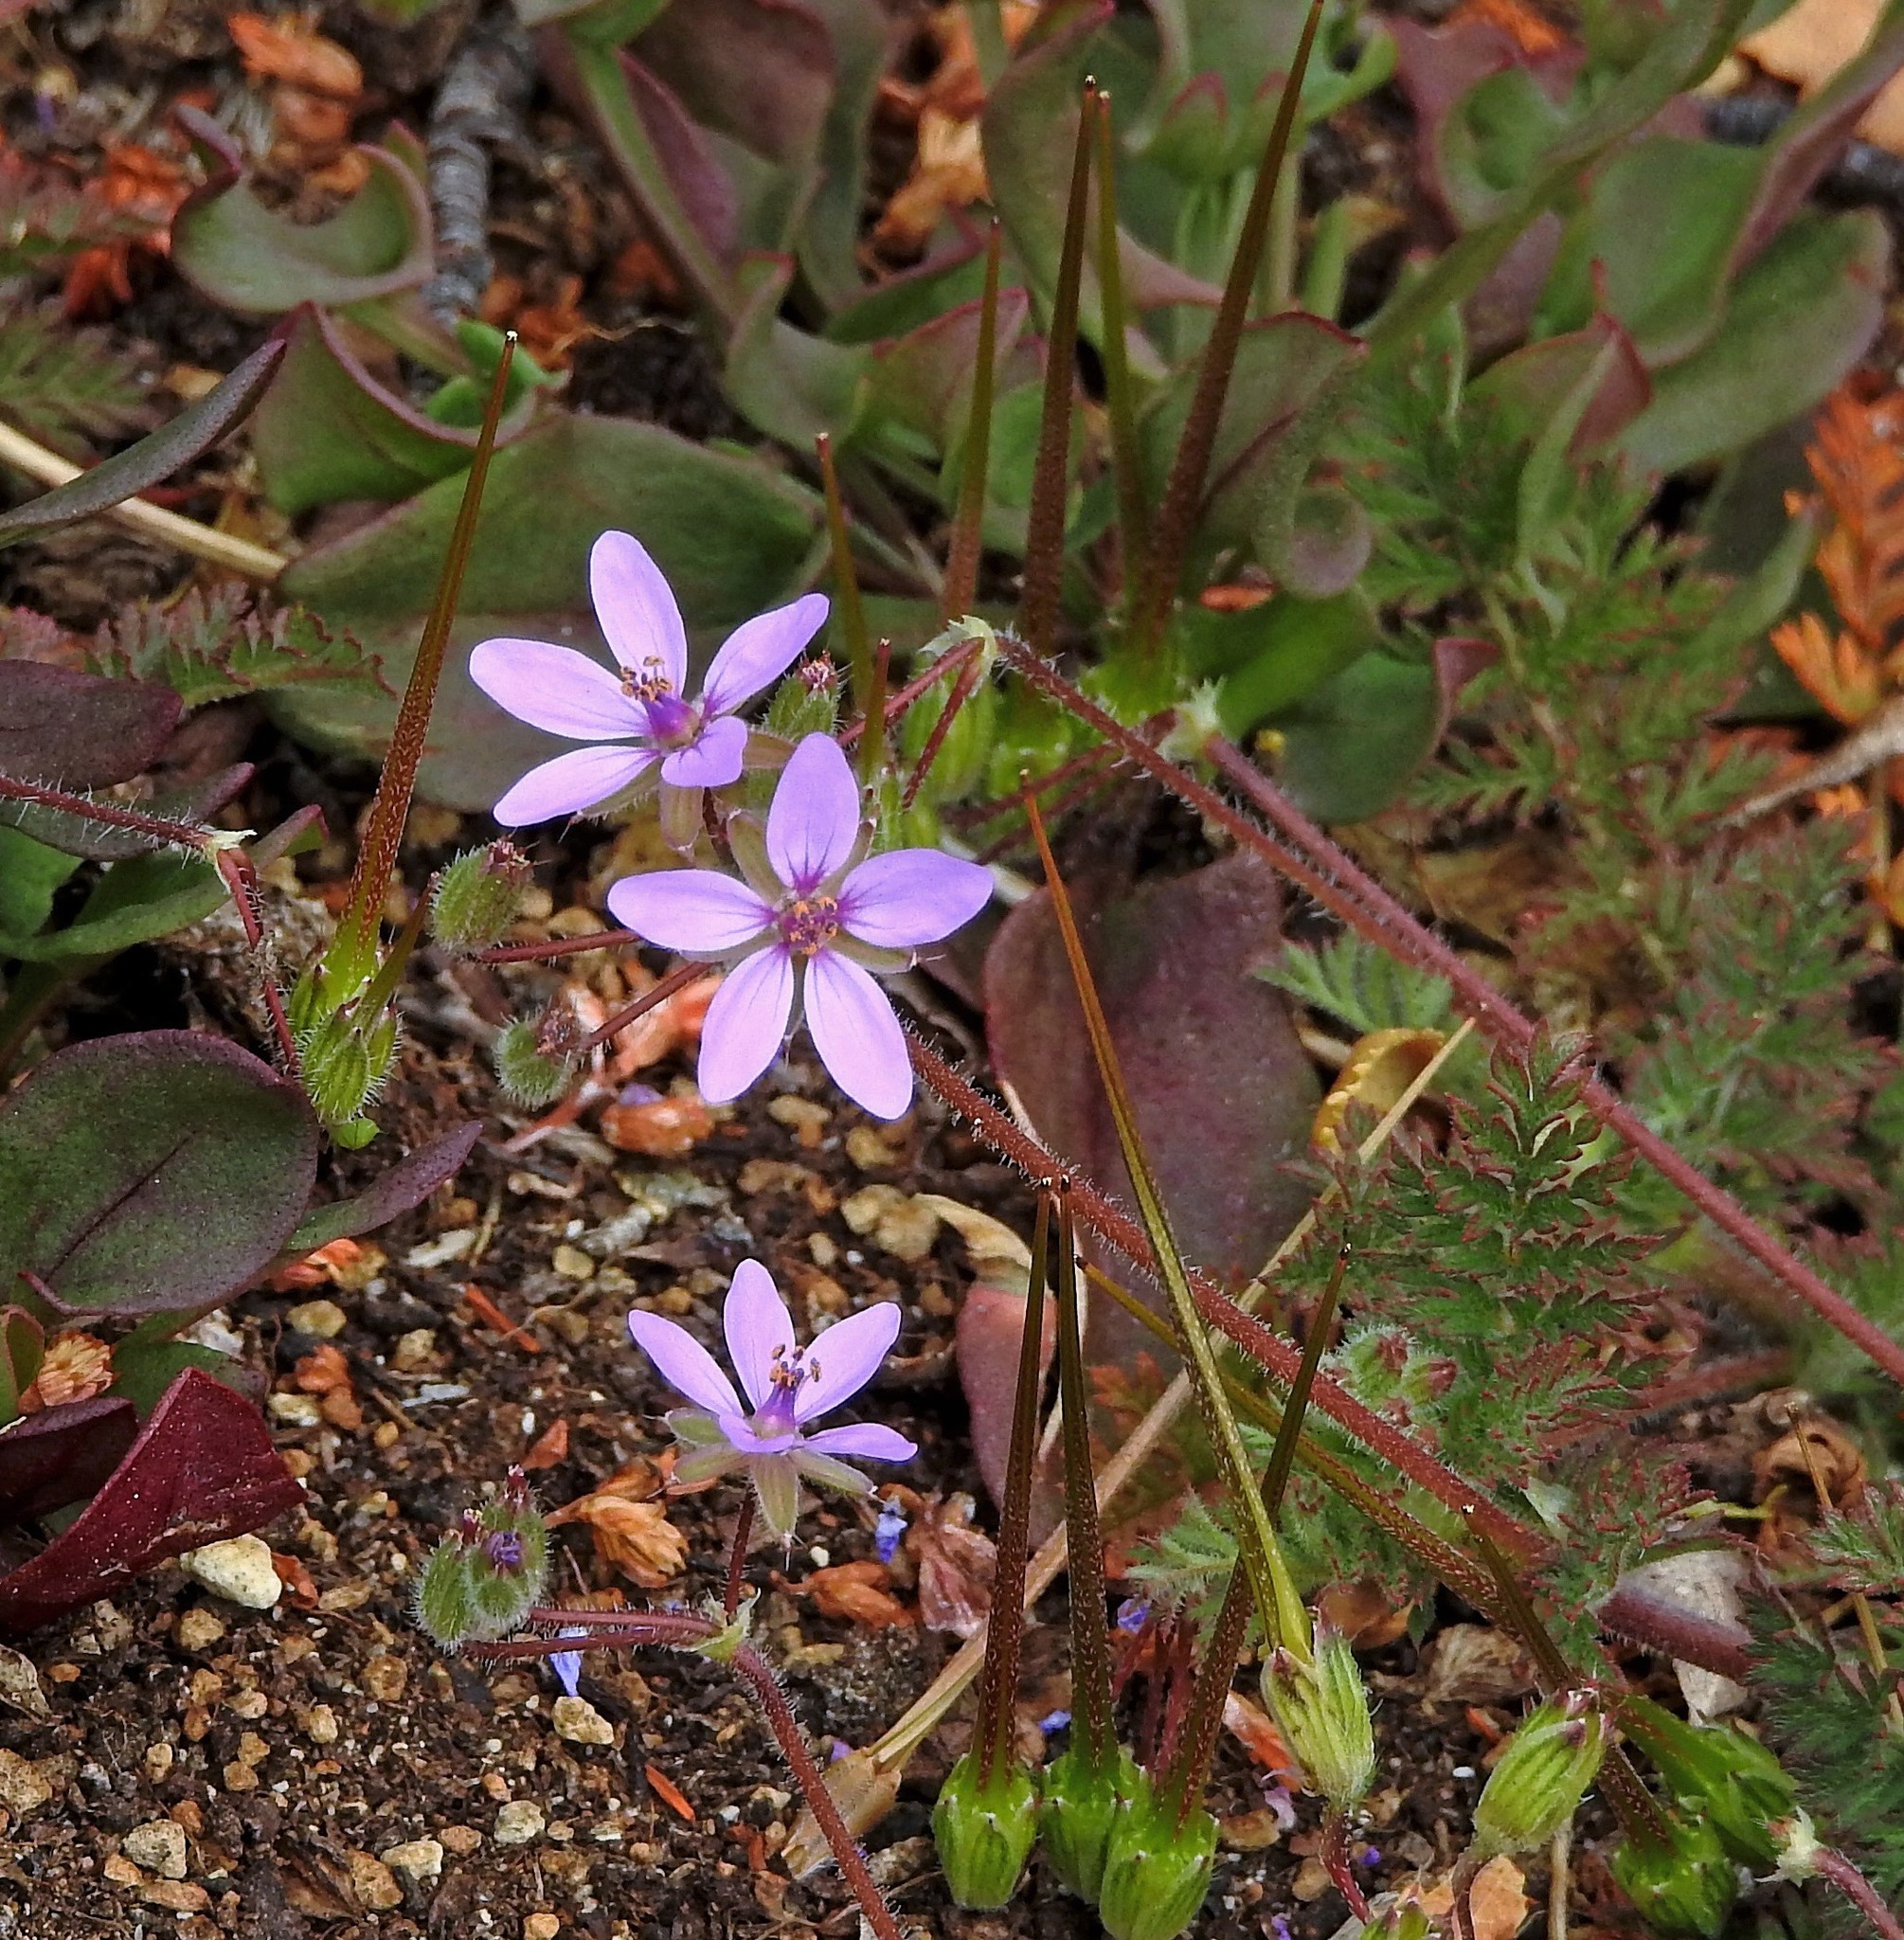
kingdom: Plantae
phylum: Tracheophyta
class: Magnoliopsida
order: Geraniales
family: Geraniaceae
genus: Erodium
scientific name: Erodium cicutarium
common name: Common stork's-bill
